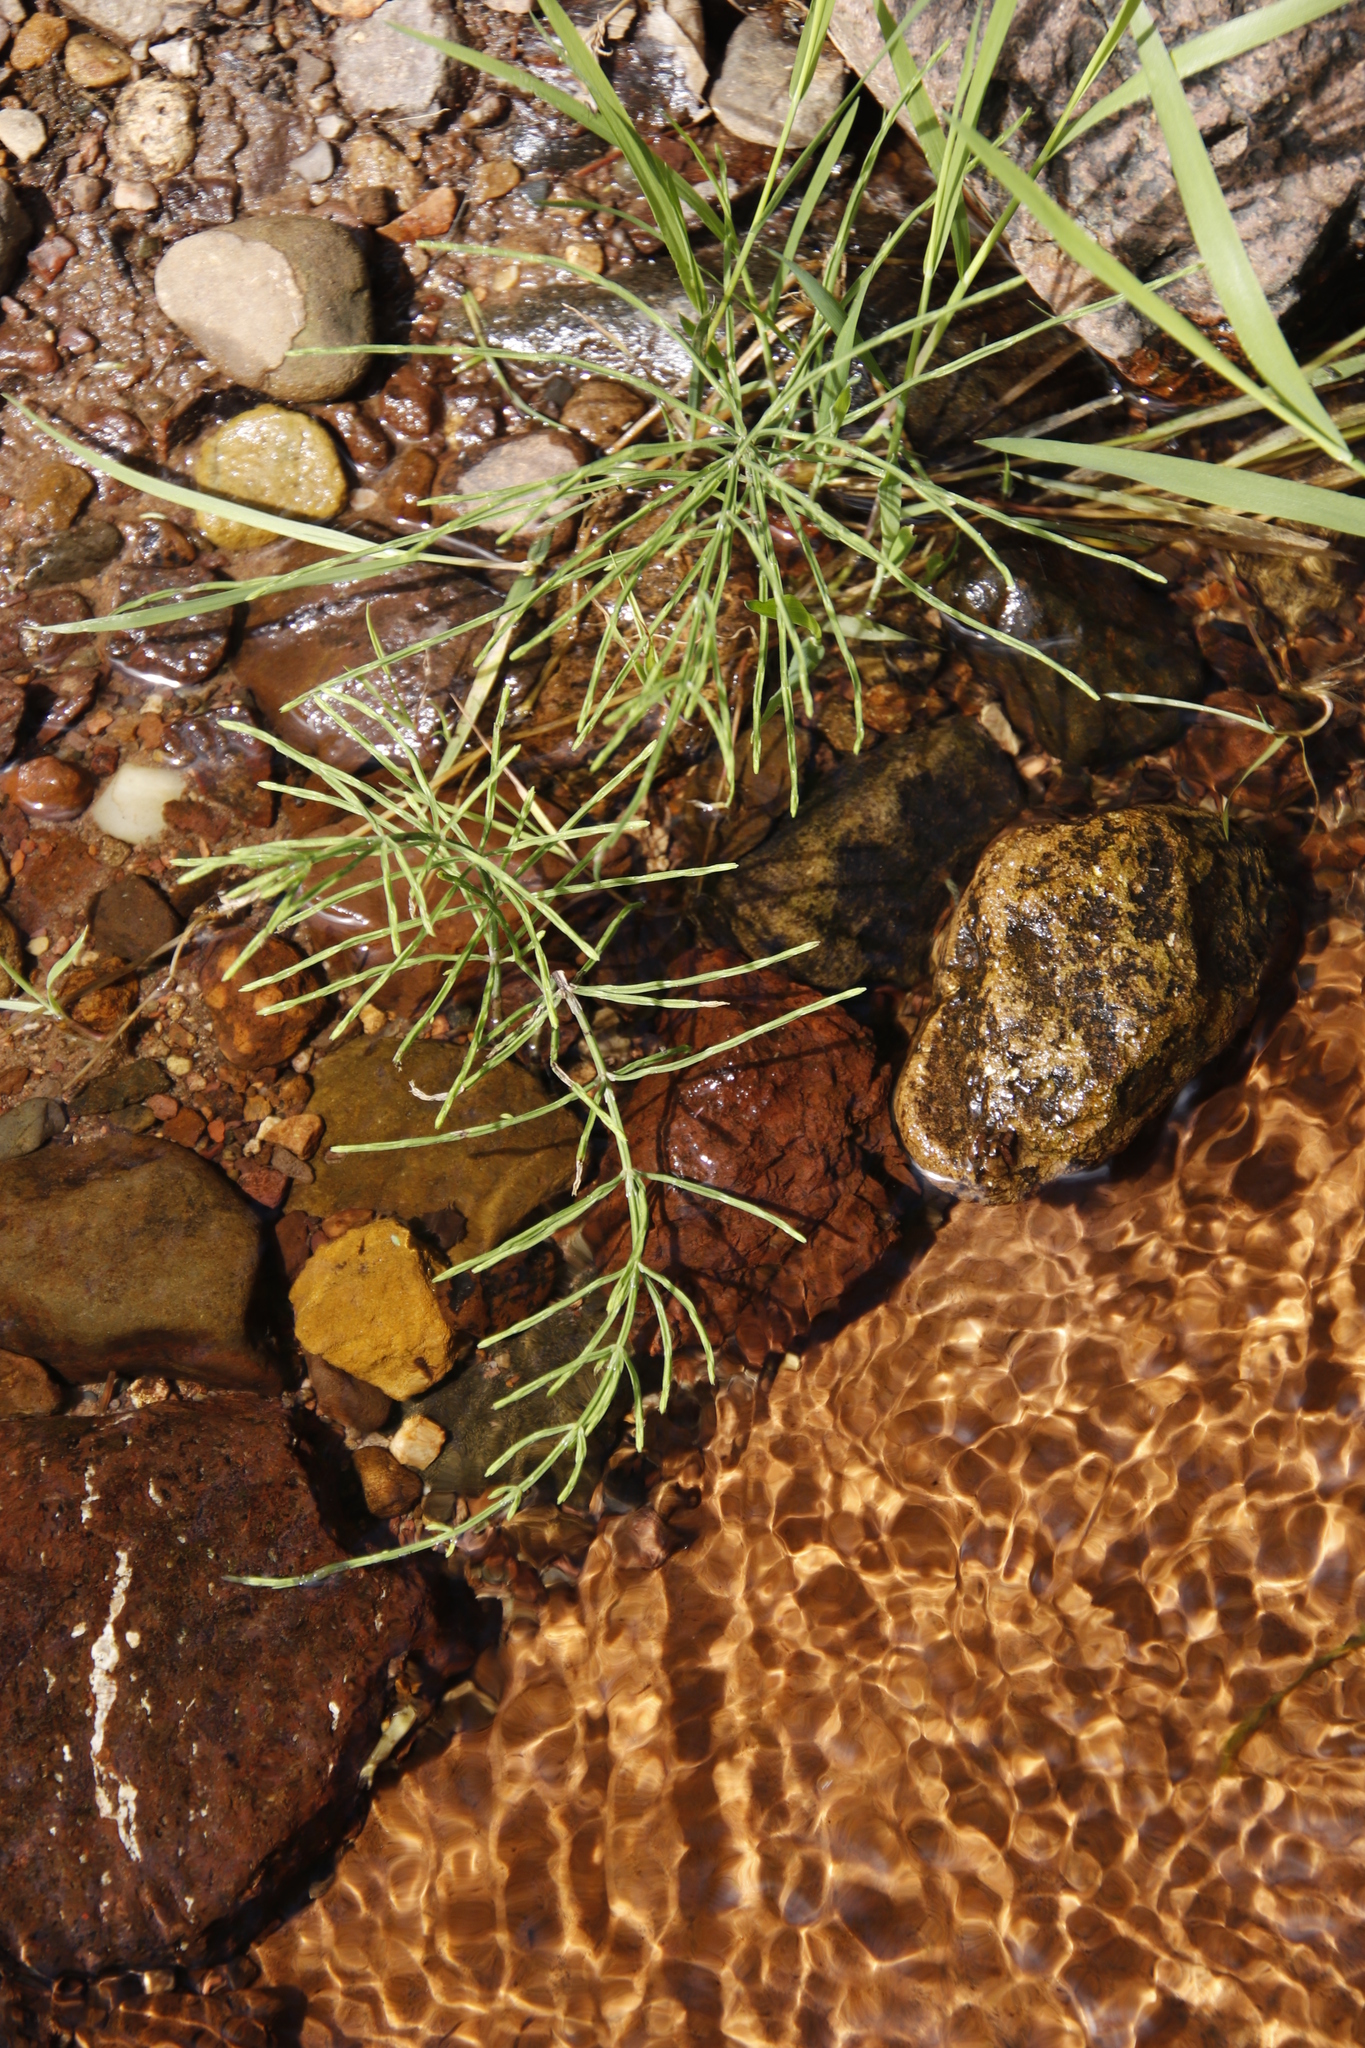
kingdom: Plantae
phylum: Tracheophyta
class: Polypodiopsida
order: Equisetales
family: Equisetaceae
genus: Equisetum
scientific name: Equisetum arvense
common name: Field horsetail
